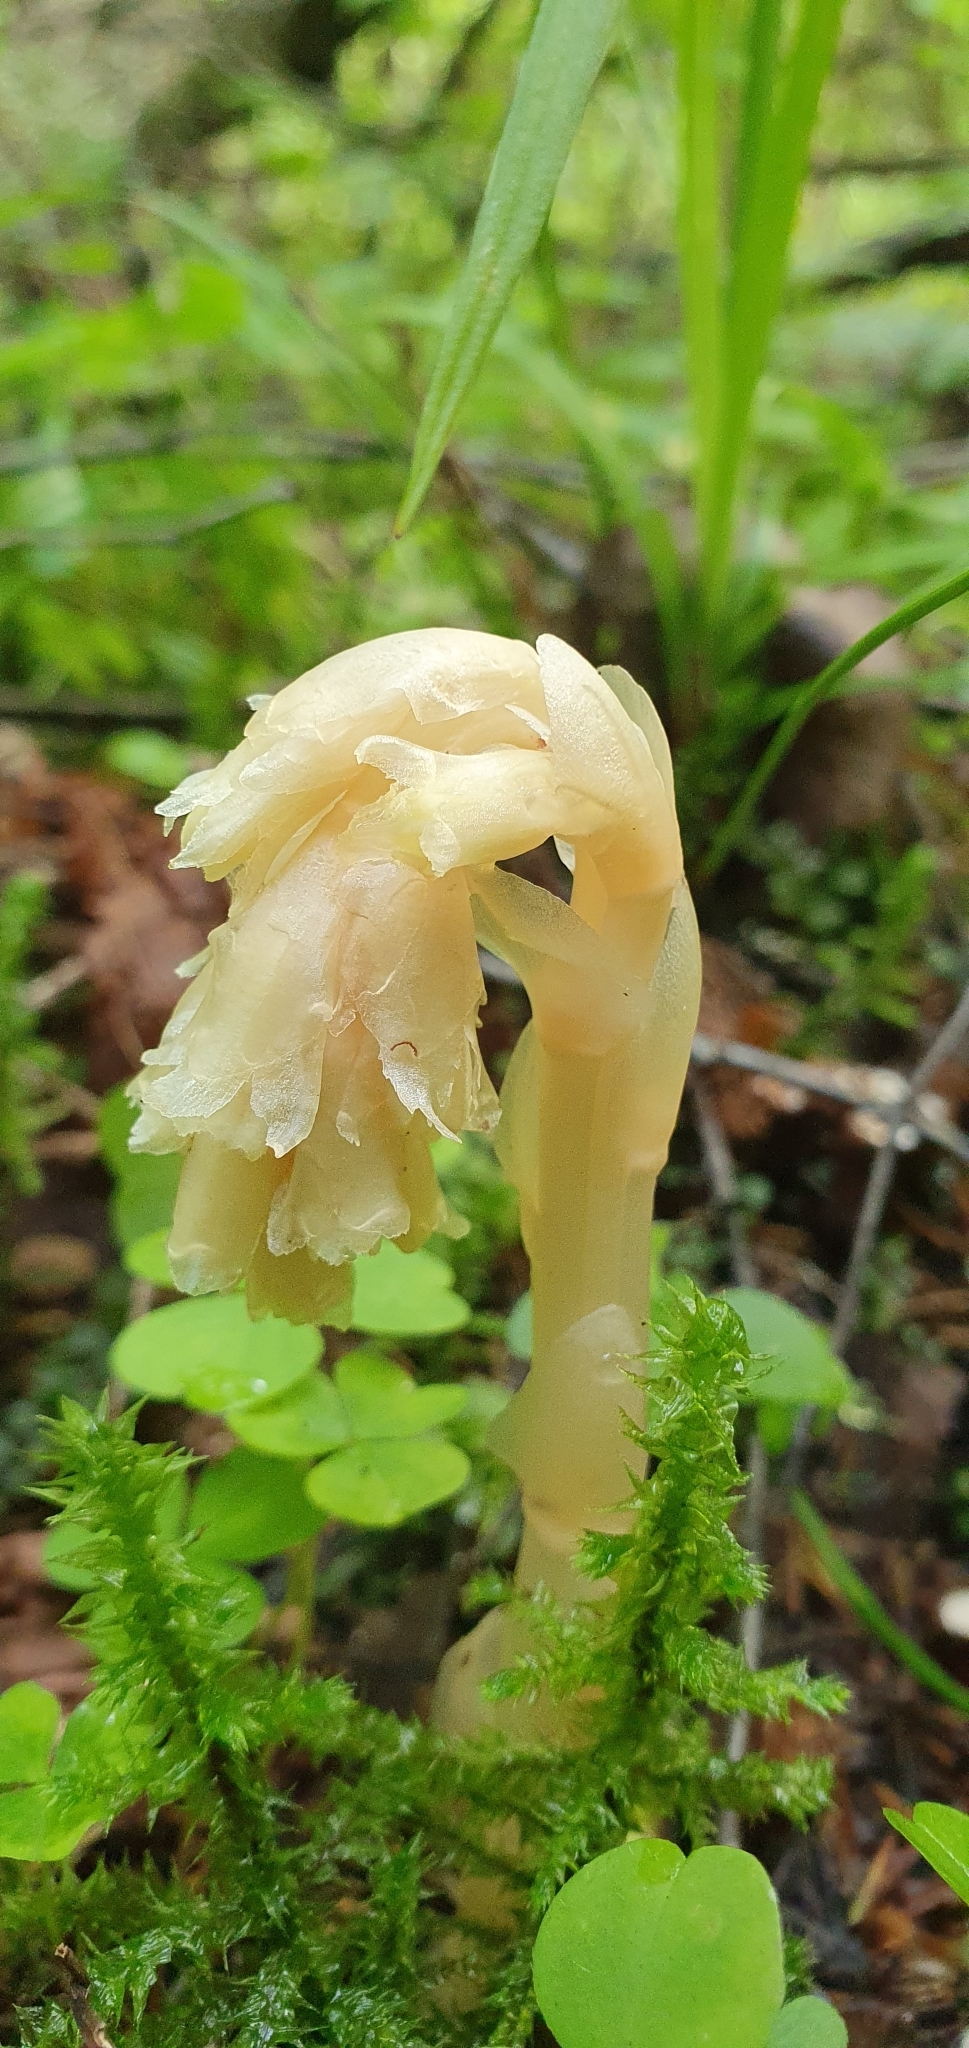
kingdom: Plantae
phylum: Tracheophyta
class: Magnoliopsida
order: Ericales
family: Ericaceae
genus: Hypopitys
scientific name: Hypopitys monotropa
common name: Yellow bird's-nest
